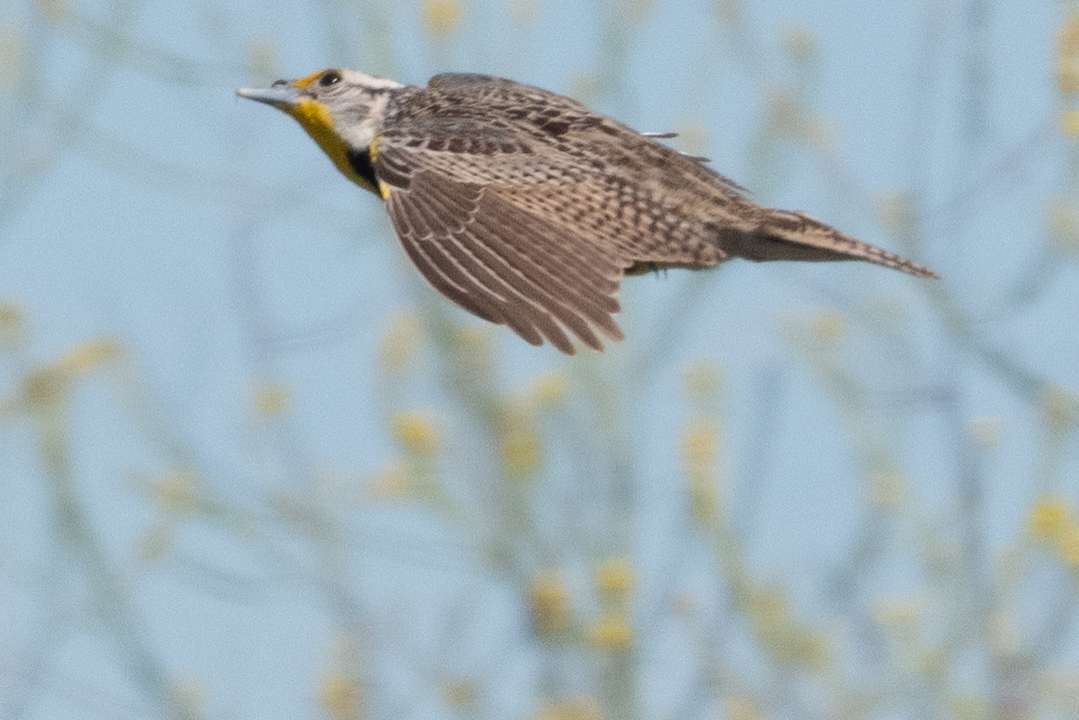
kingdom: Animalia
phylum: Chordata
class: Aves
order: Passeriformes
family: Icteridae
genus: Sturnella
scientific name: Sturnella neglecta
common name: Western meadowlark
